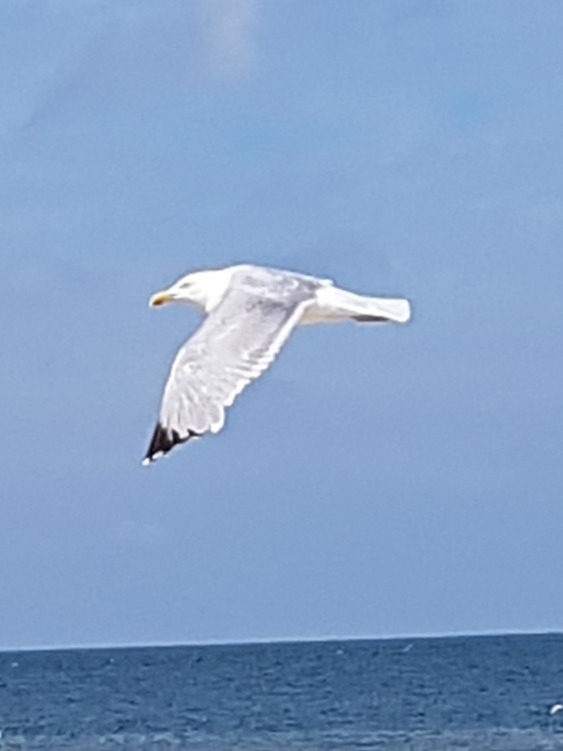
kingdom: Animalia
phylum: Chordata
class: Aves
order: Charadriiformes
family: Laridae
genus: Larus
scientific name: Larus argentatus
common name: Herring gull
